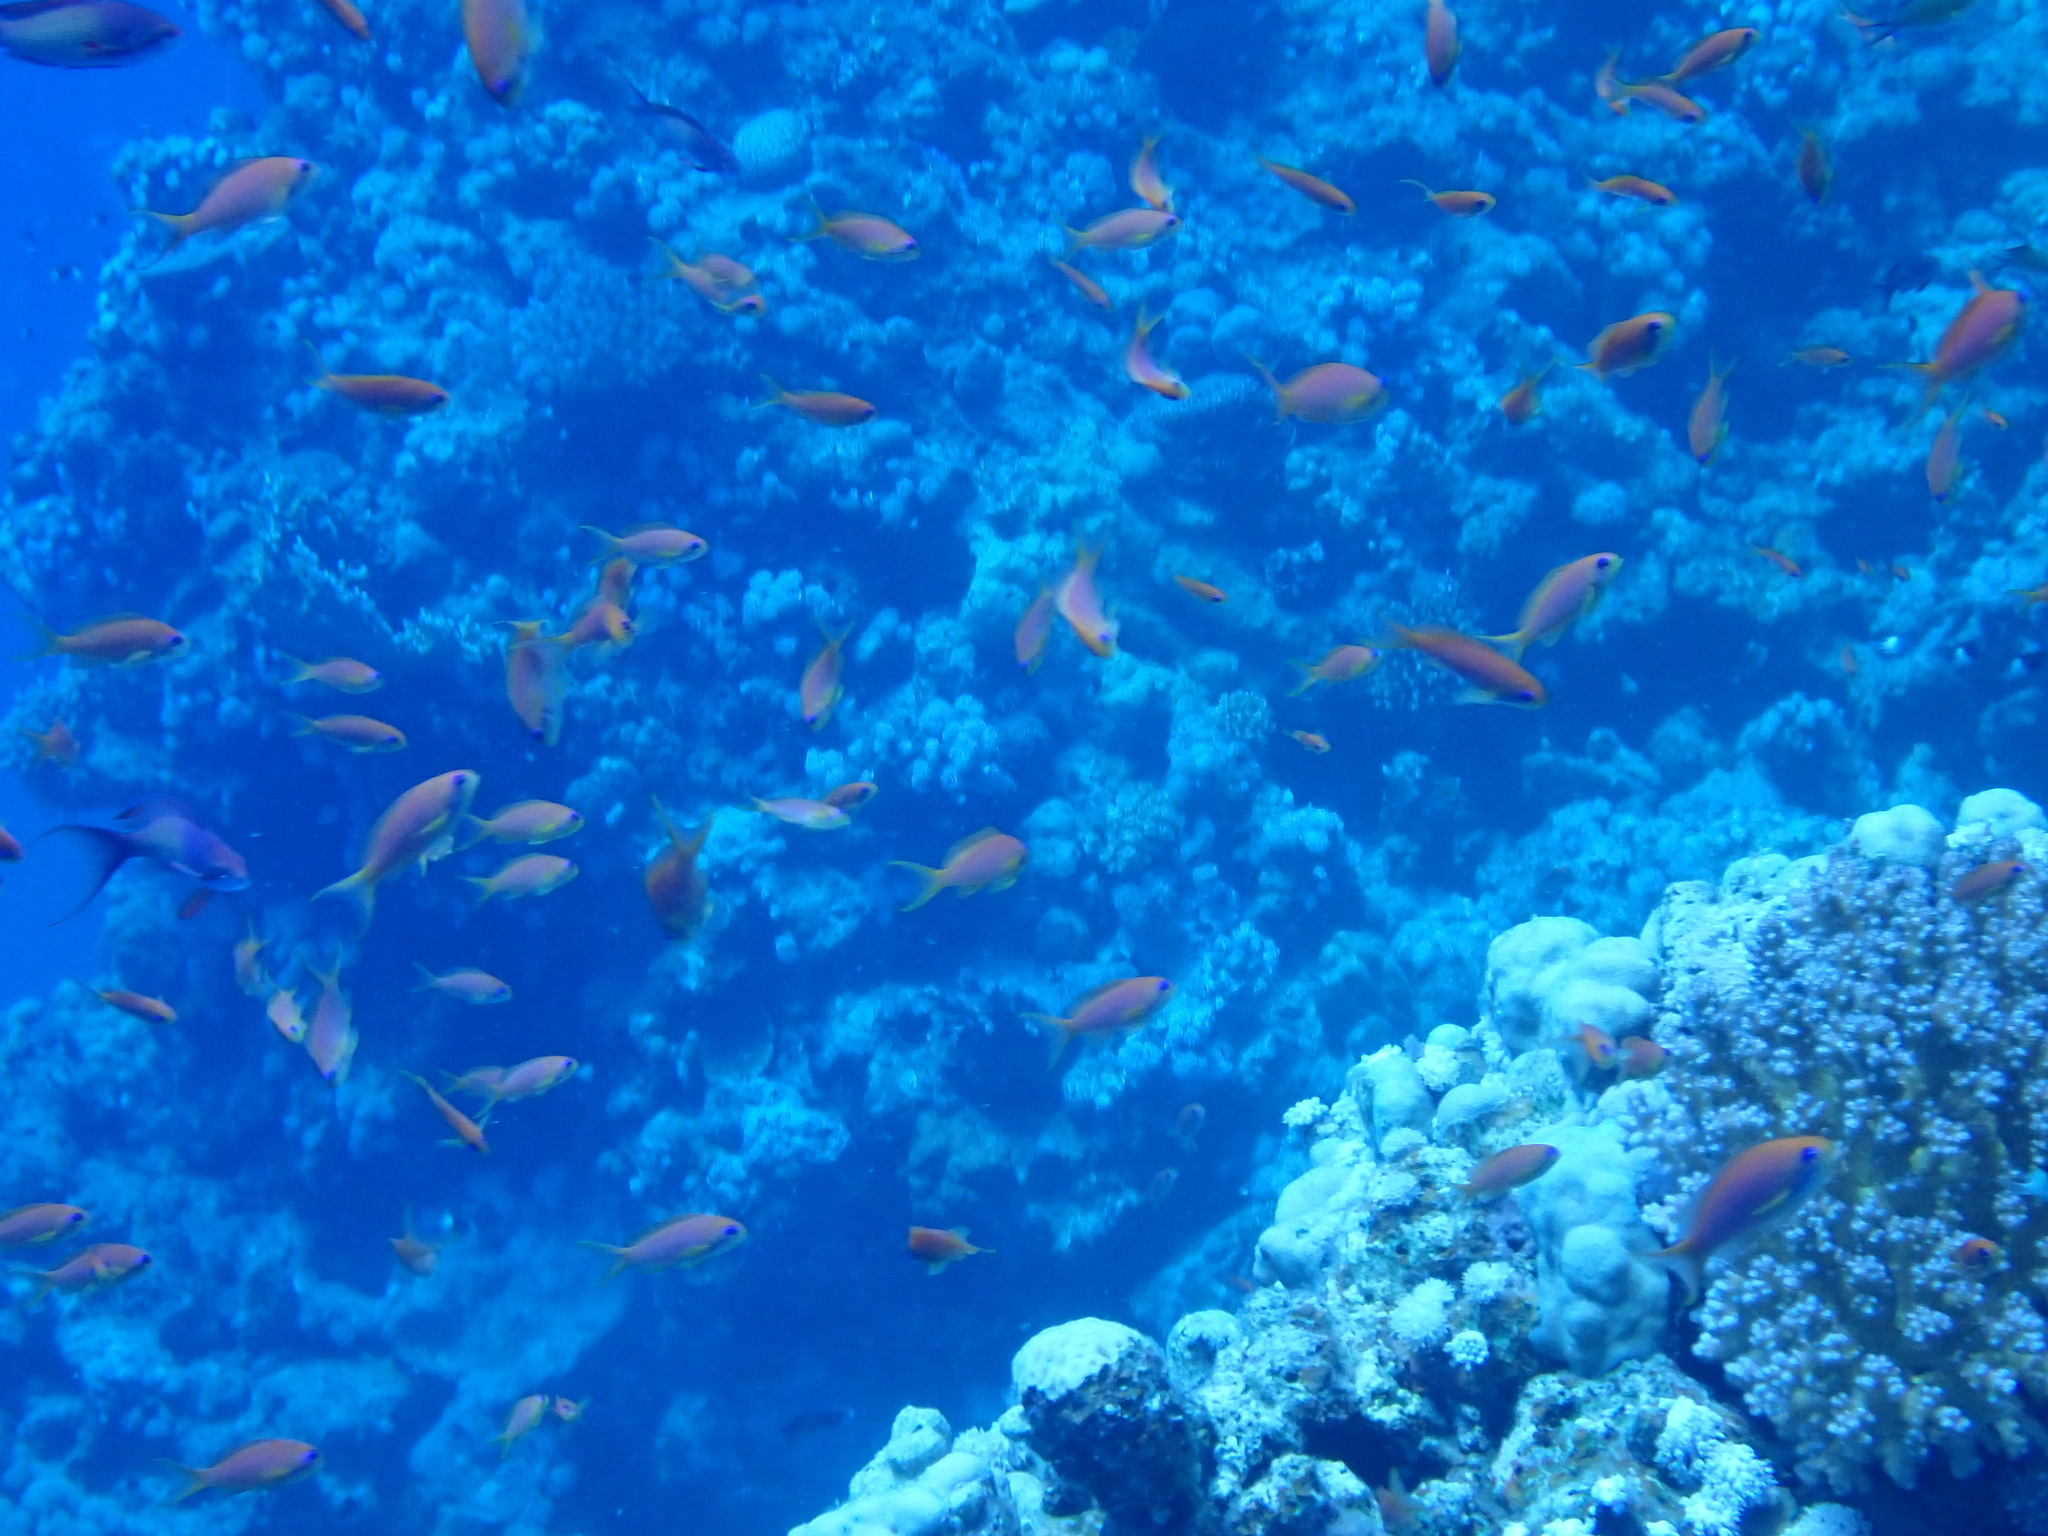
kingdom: Animalia
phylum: Chordata
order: Perciformes
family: Serranidae
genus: Pseudanthias
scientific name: Pseudanthias squamipinnis
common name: Scalefin anthias
